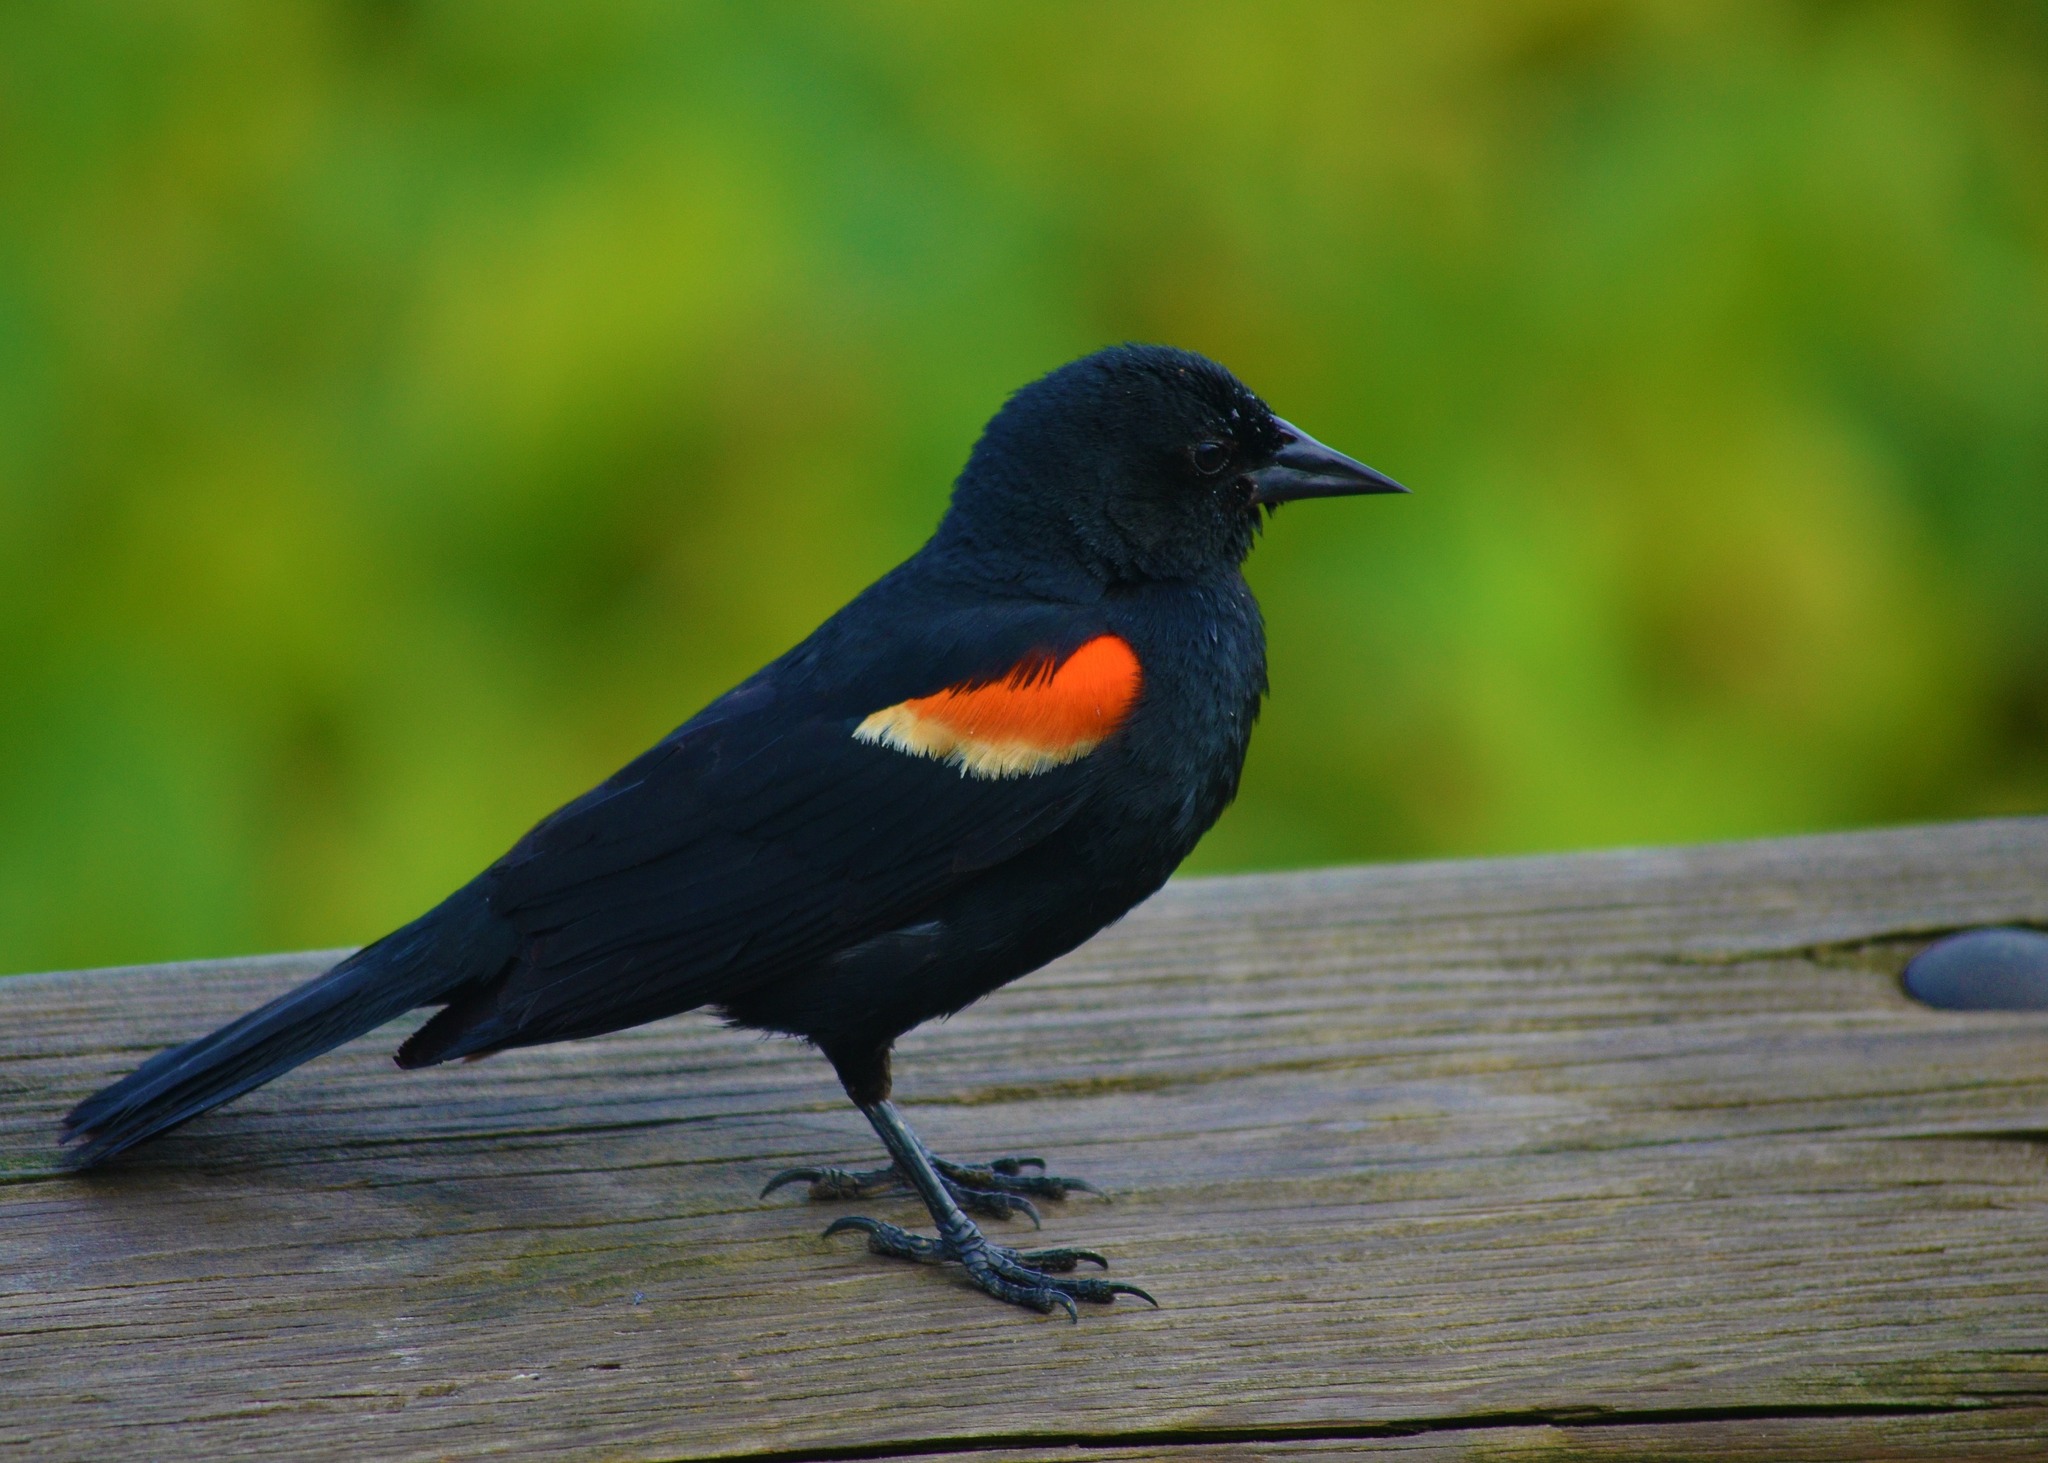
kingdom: Animalia
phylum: Chordata
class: Aves
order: Passeriformes
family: Icteridae
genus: Agelaius
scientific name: Agelaius phoeniceus
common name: Red-winged blackbird
